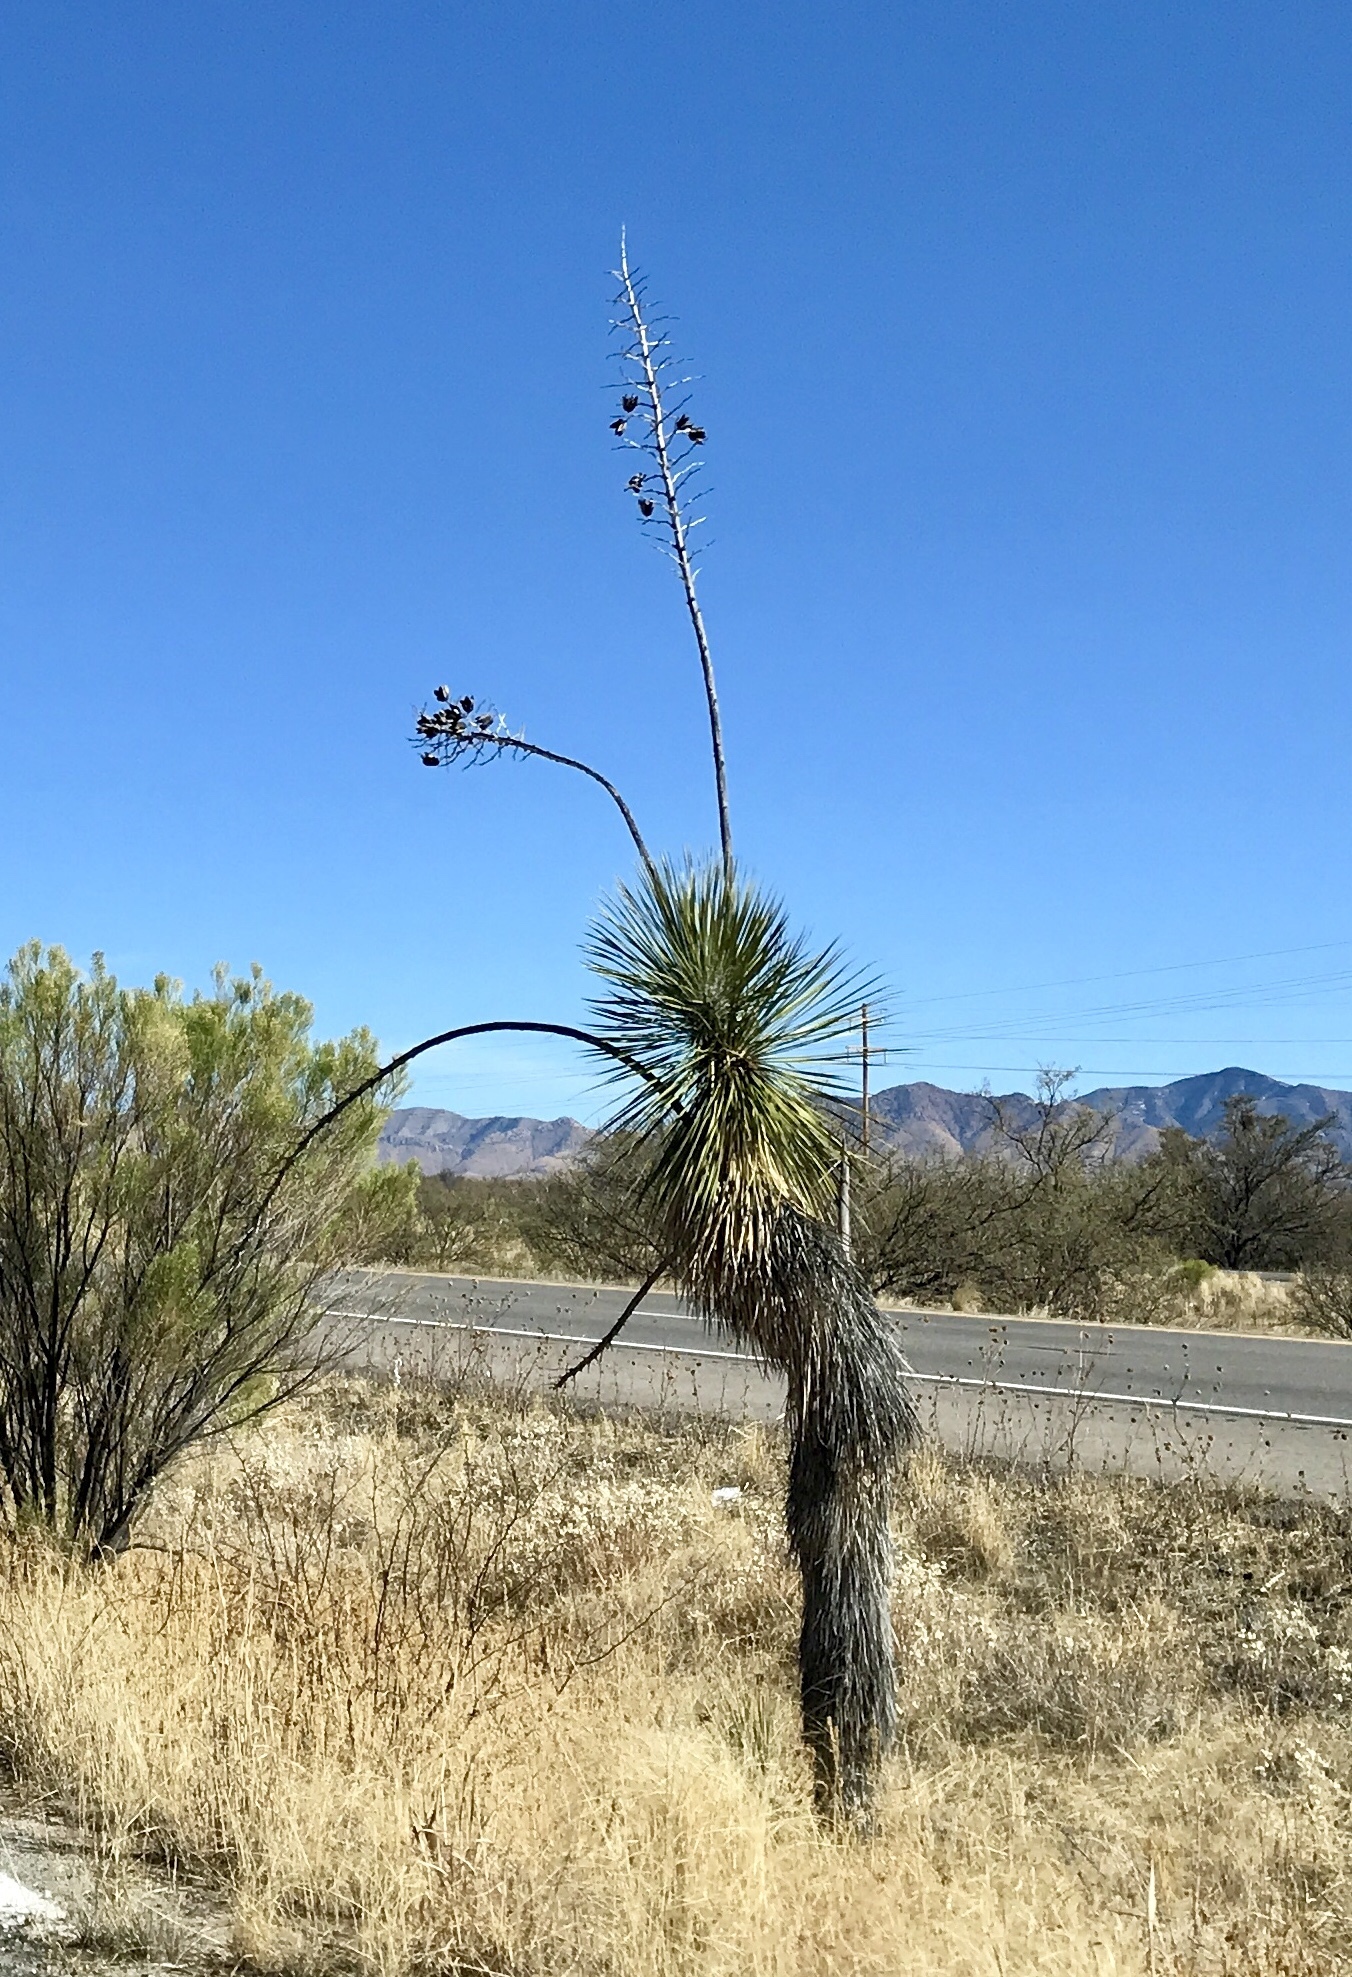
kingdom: Plantae
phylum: Tracheophyta
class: Liliopsida
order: Asparagales
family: Asparagaceae
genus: Yucca
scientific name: Yucca elata
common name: Palmella
